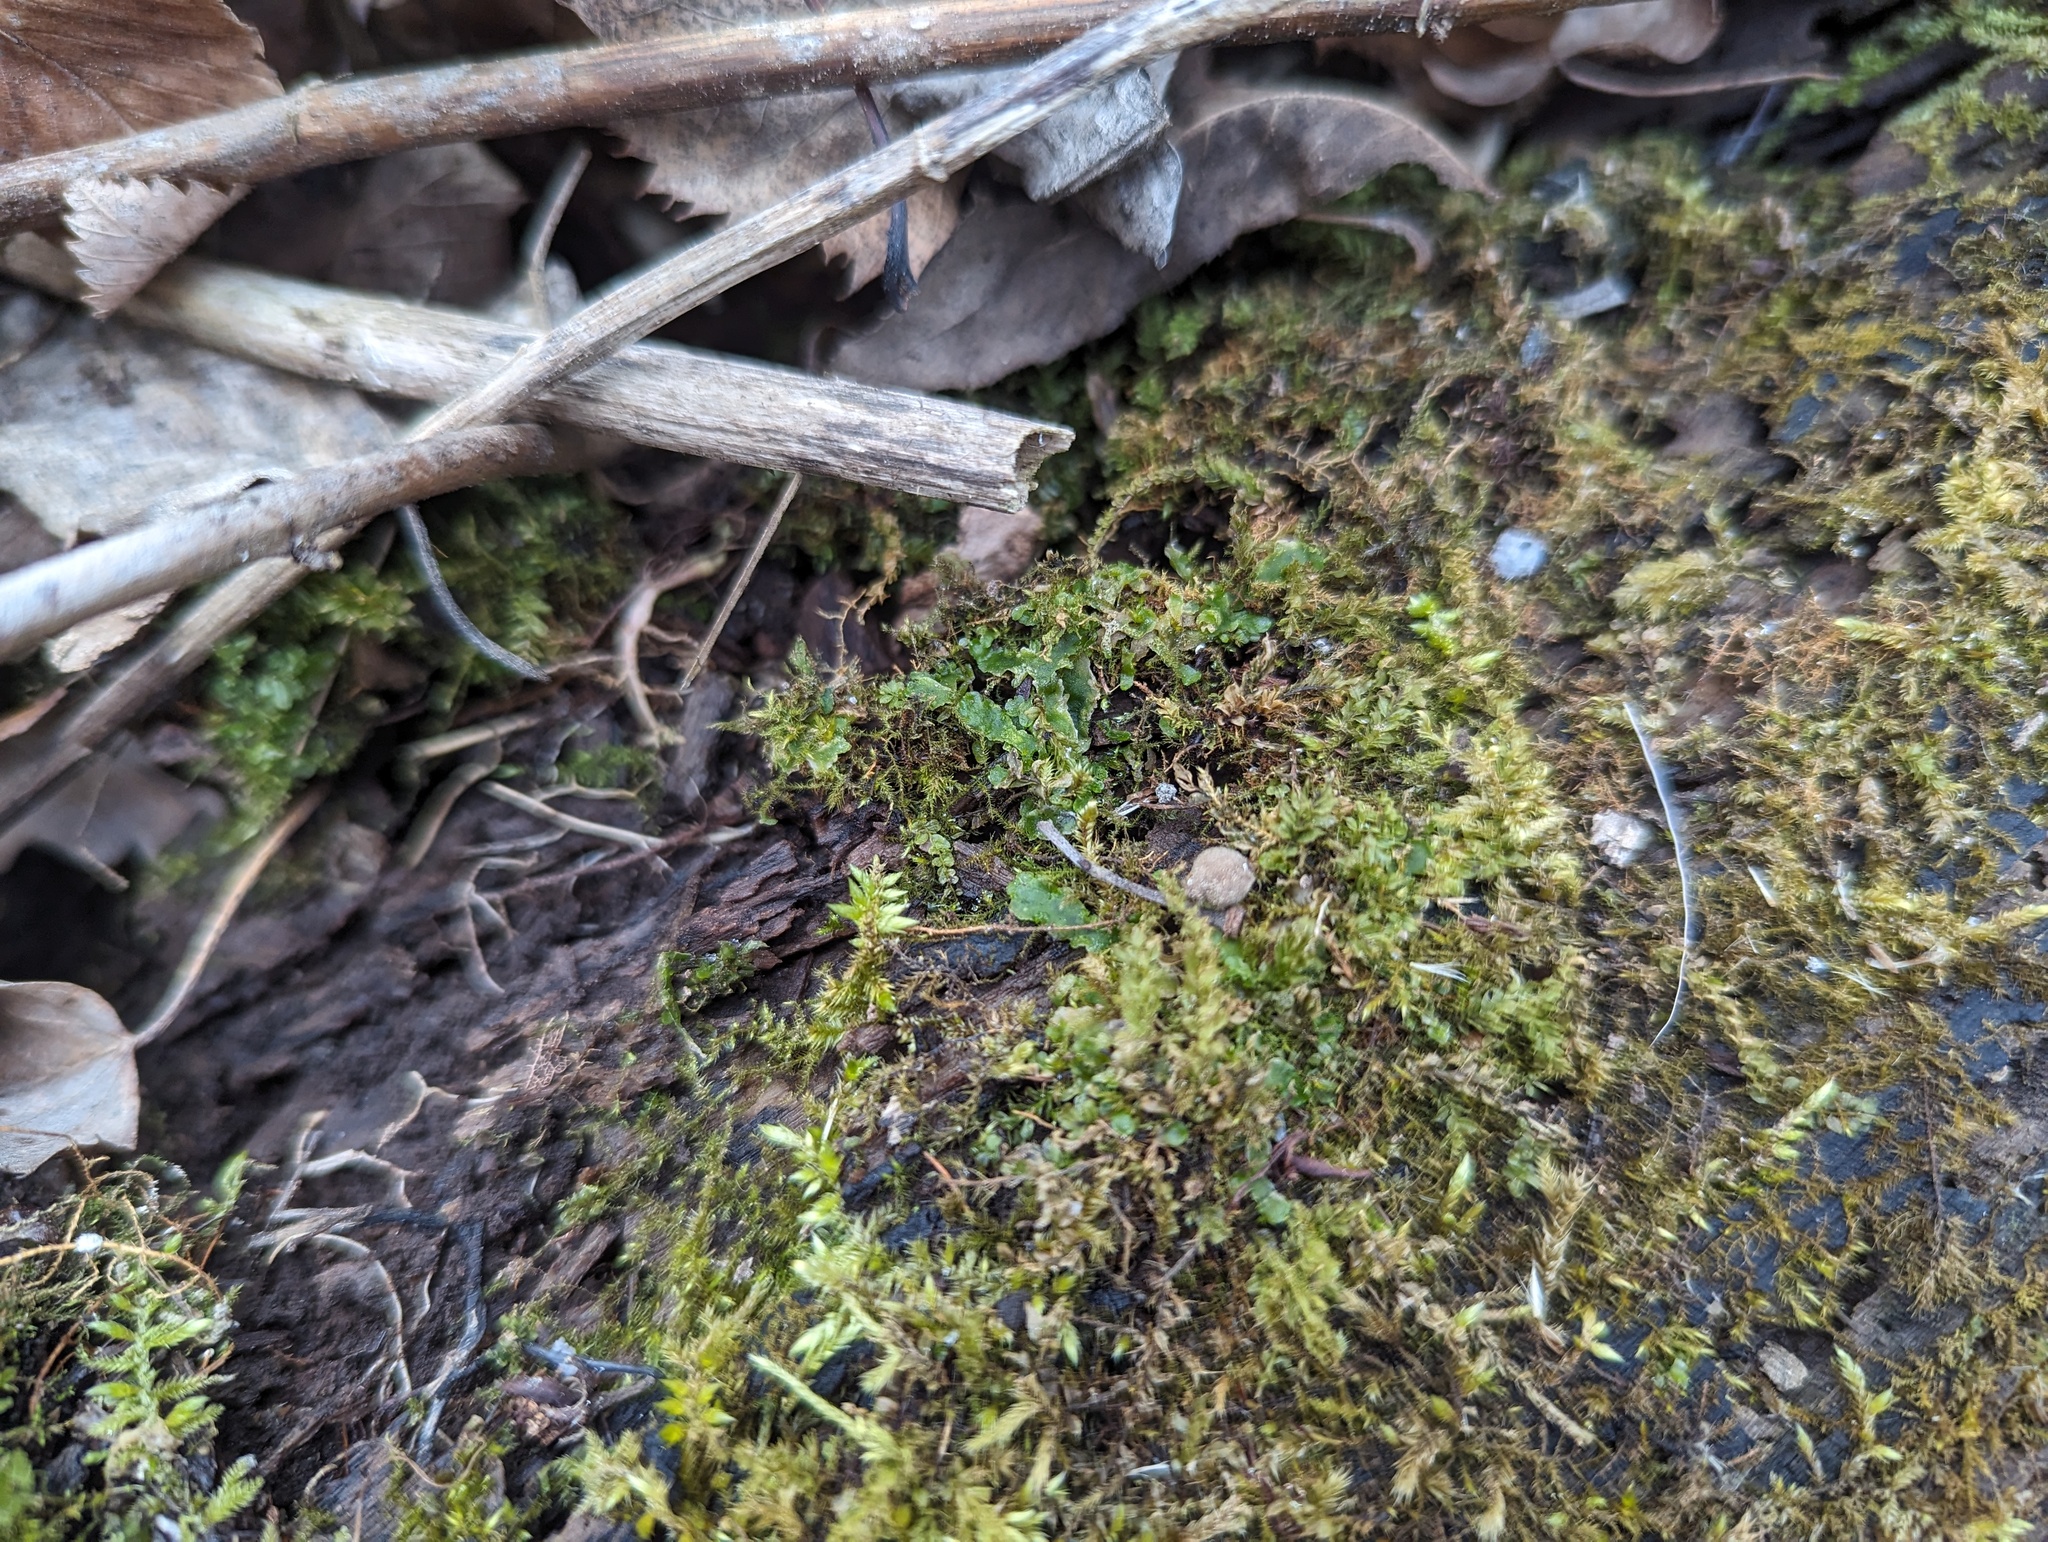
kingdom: Plantae
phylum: Marchantiophyta
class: Jungermanniopsida
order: Metzgeriales
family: Aneuraceae
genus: Aneura
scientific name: Aneura pinguis
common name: Common greasewort
